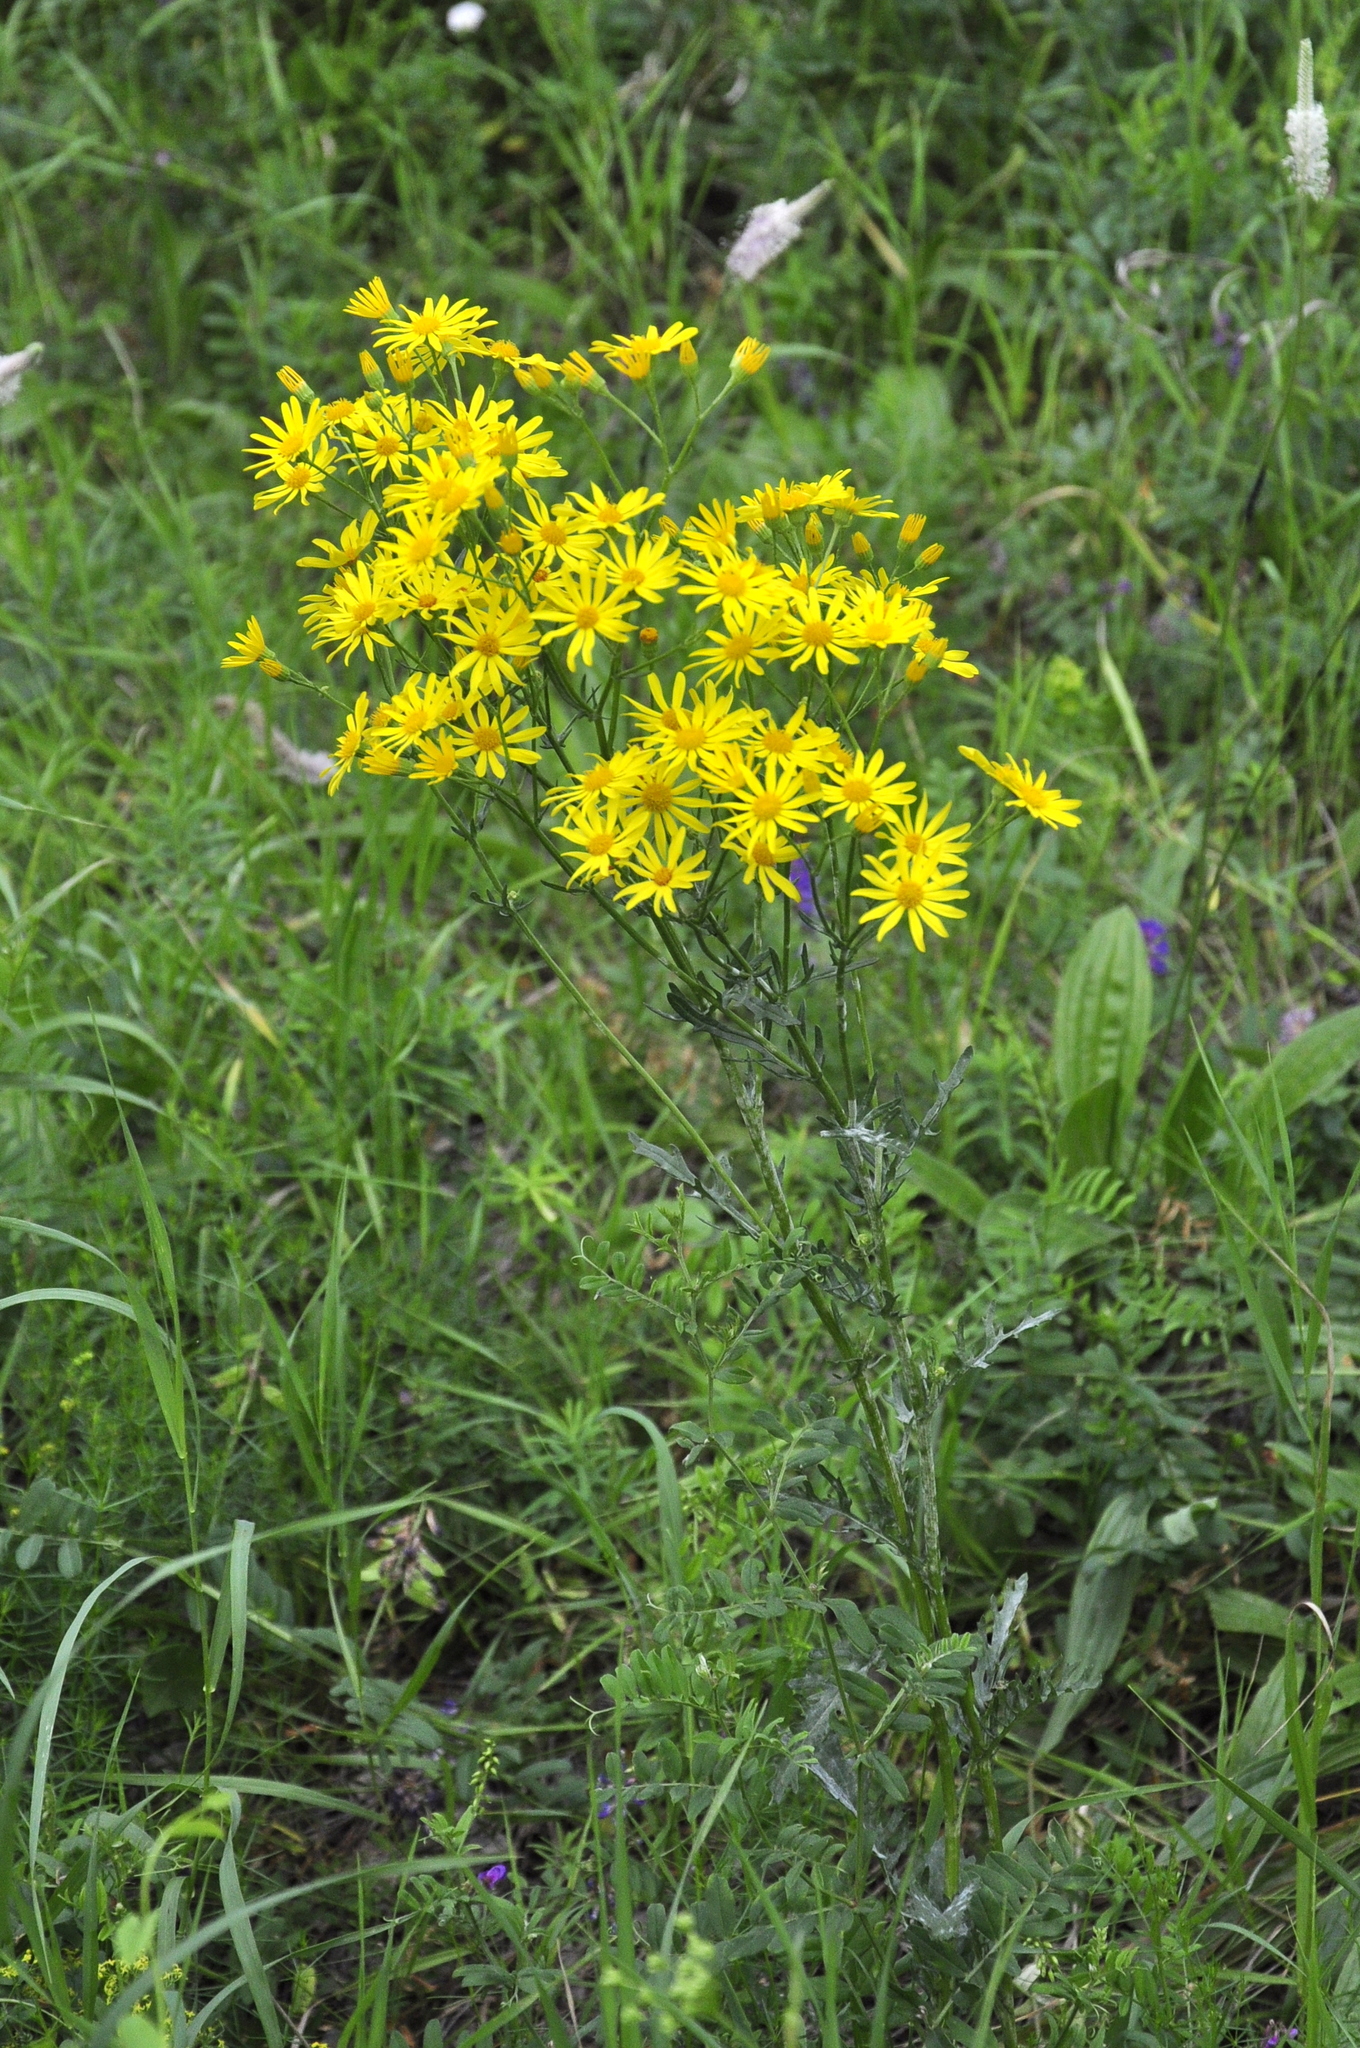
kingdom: Plantae
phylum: Tracheophyta
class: Magnoliopsida
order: Asterales
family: Asteraceae
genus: Jacobaea
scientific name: Jacobaea erucifolia
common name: Hoary ragwort
